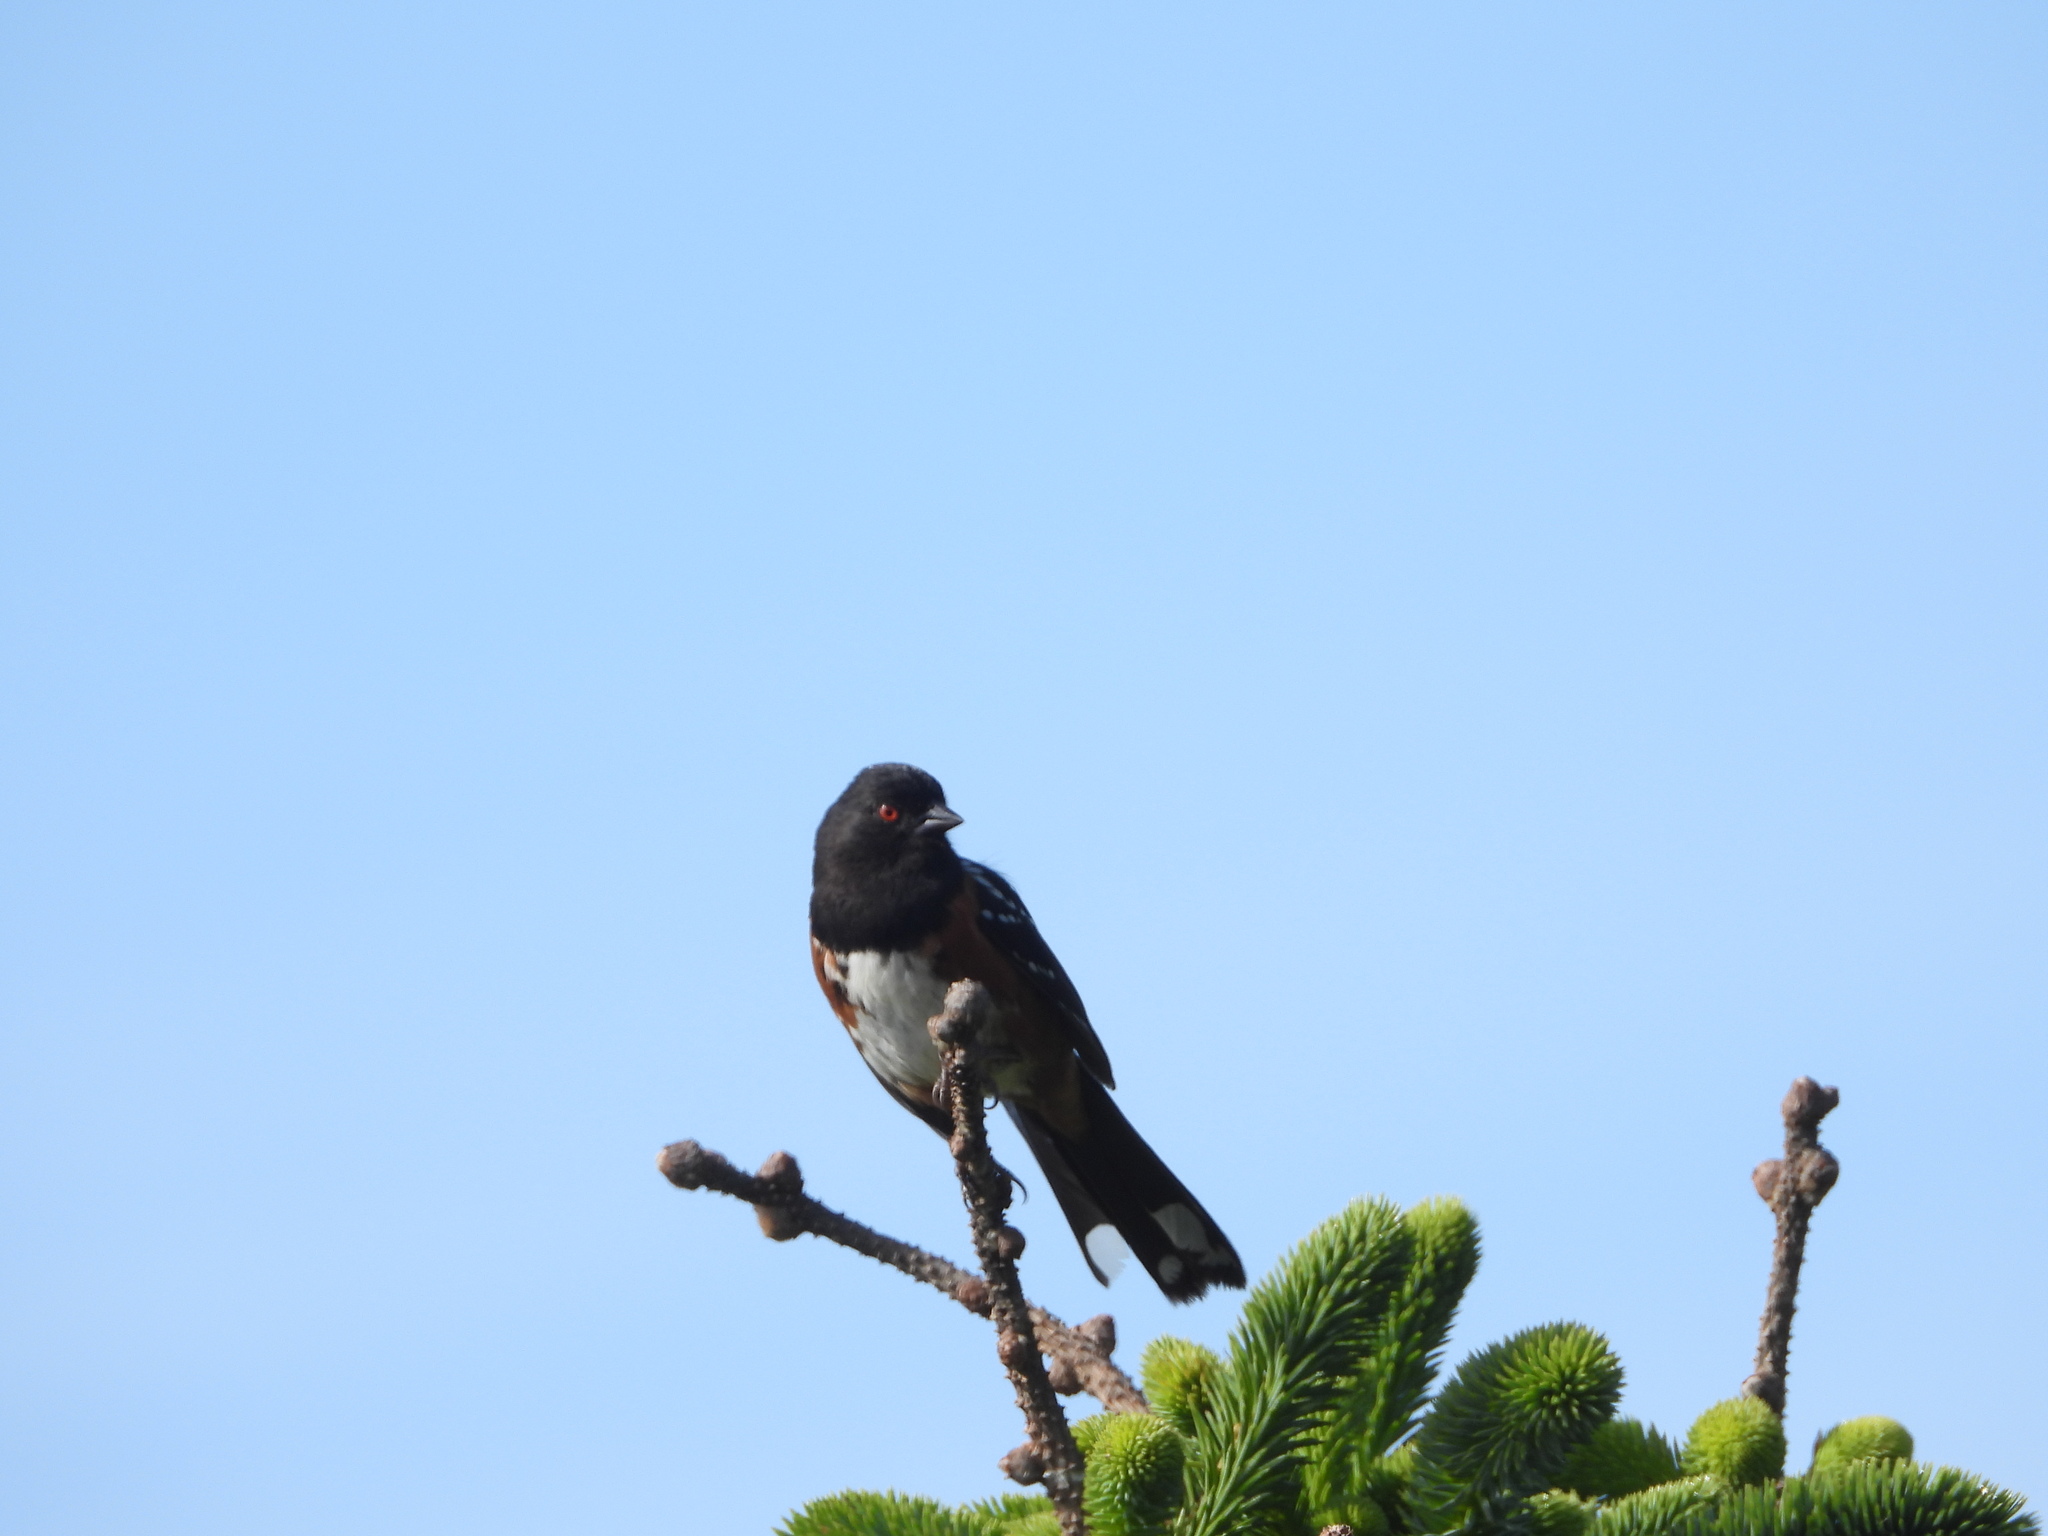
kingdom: Animalia
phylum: Chordata
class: Aves
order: Passeriformes
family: Passerellidae
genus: Pipilo
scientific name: Pipilo maculatus
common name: Spotted towhee
